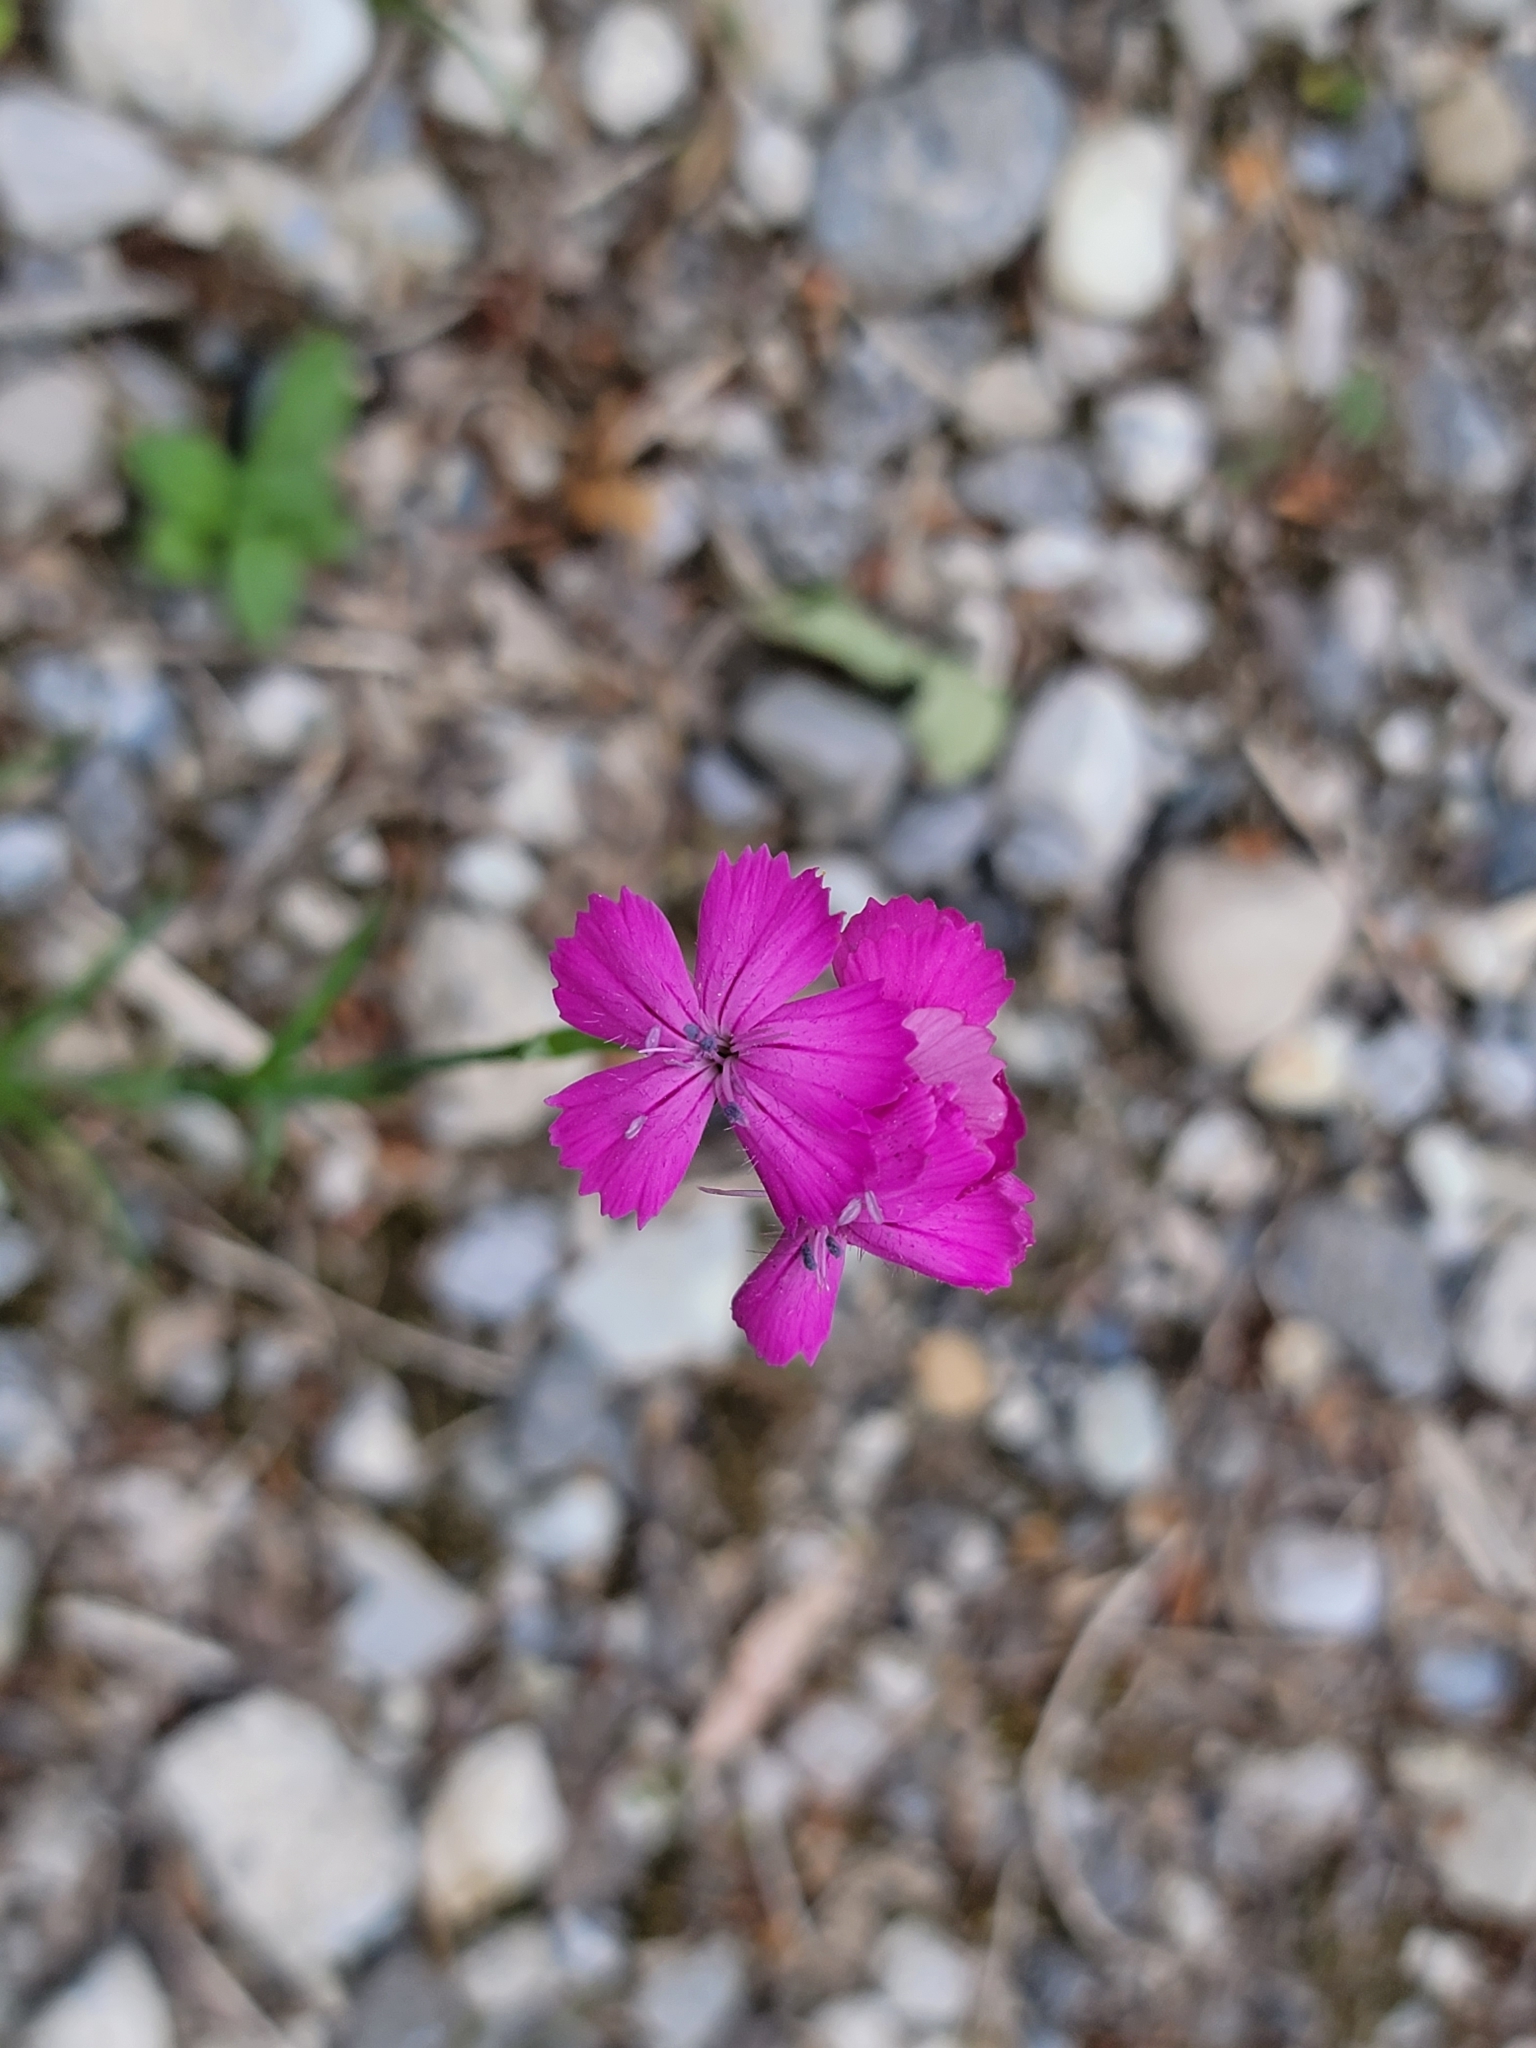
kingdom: Plantae
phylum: Tracheophyta
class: Magnoliopsida
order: Caryophyllales
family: Caryophyllaceae
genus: Dianthus
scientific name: Dianthus carthusianorum
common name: Carthusian pink
